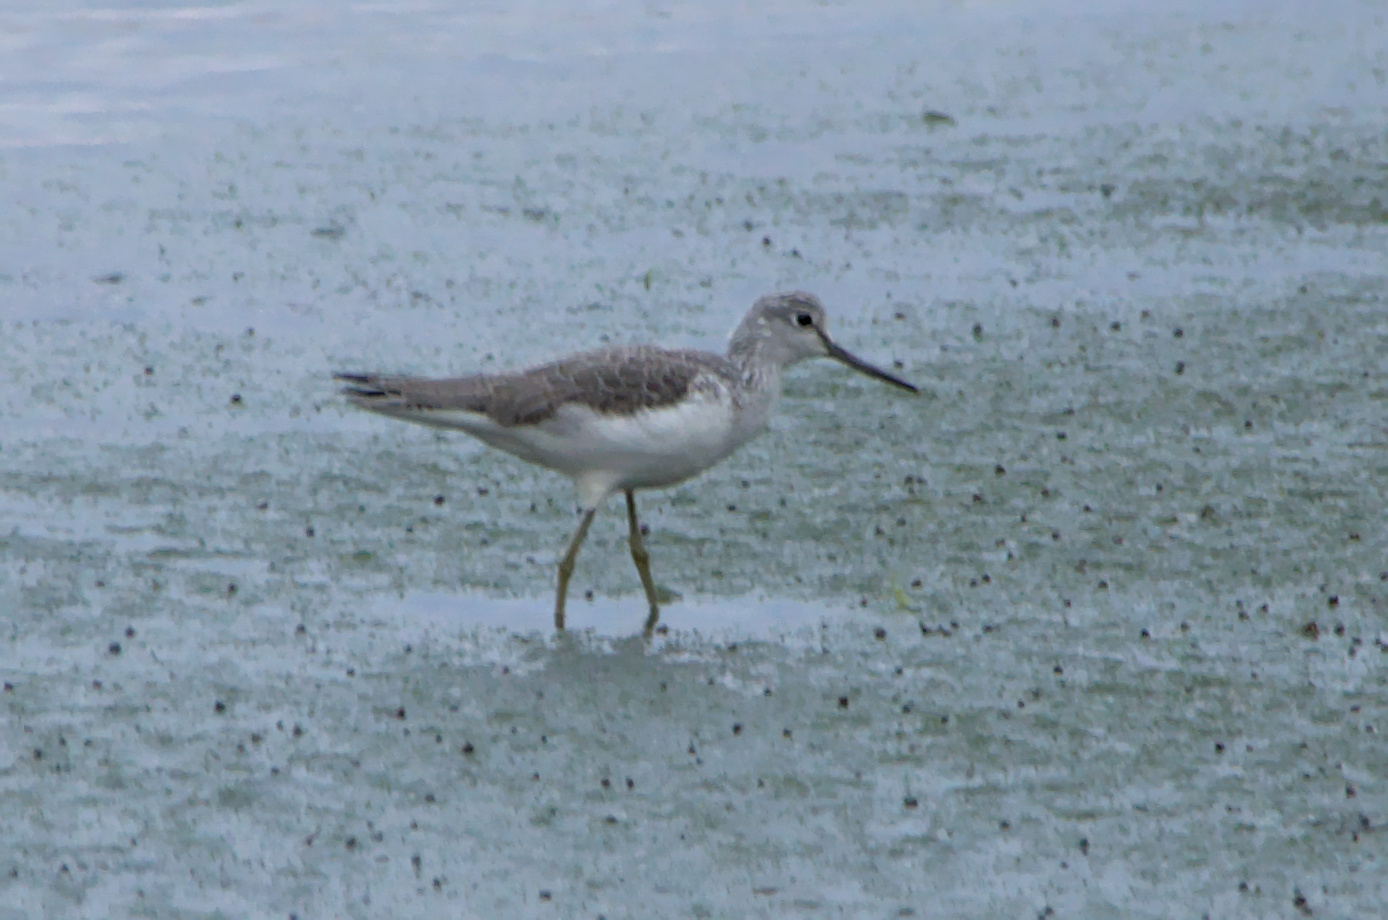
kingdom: Animalia
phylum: Chordata
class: Aves
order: Charadriiformes
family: Scolopacidae
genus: Tringa
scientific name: Tringa nebularia
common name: Common greenshank
